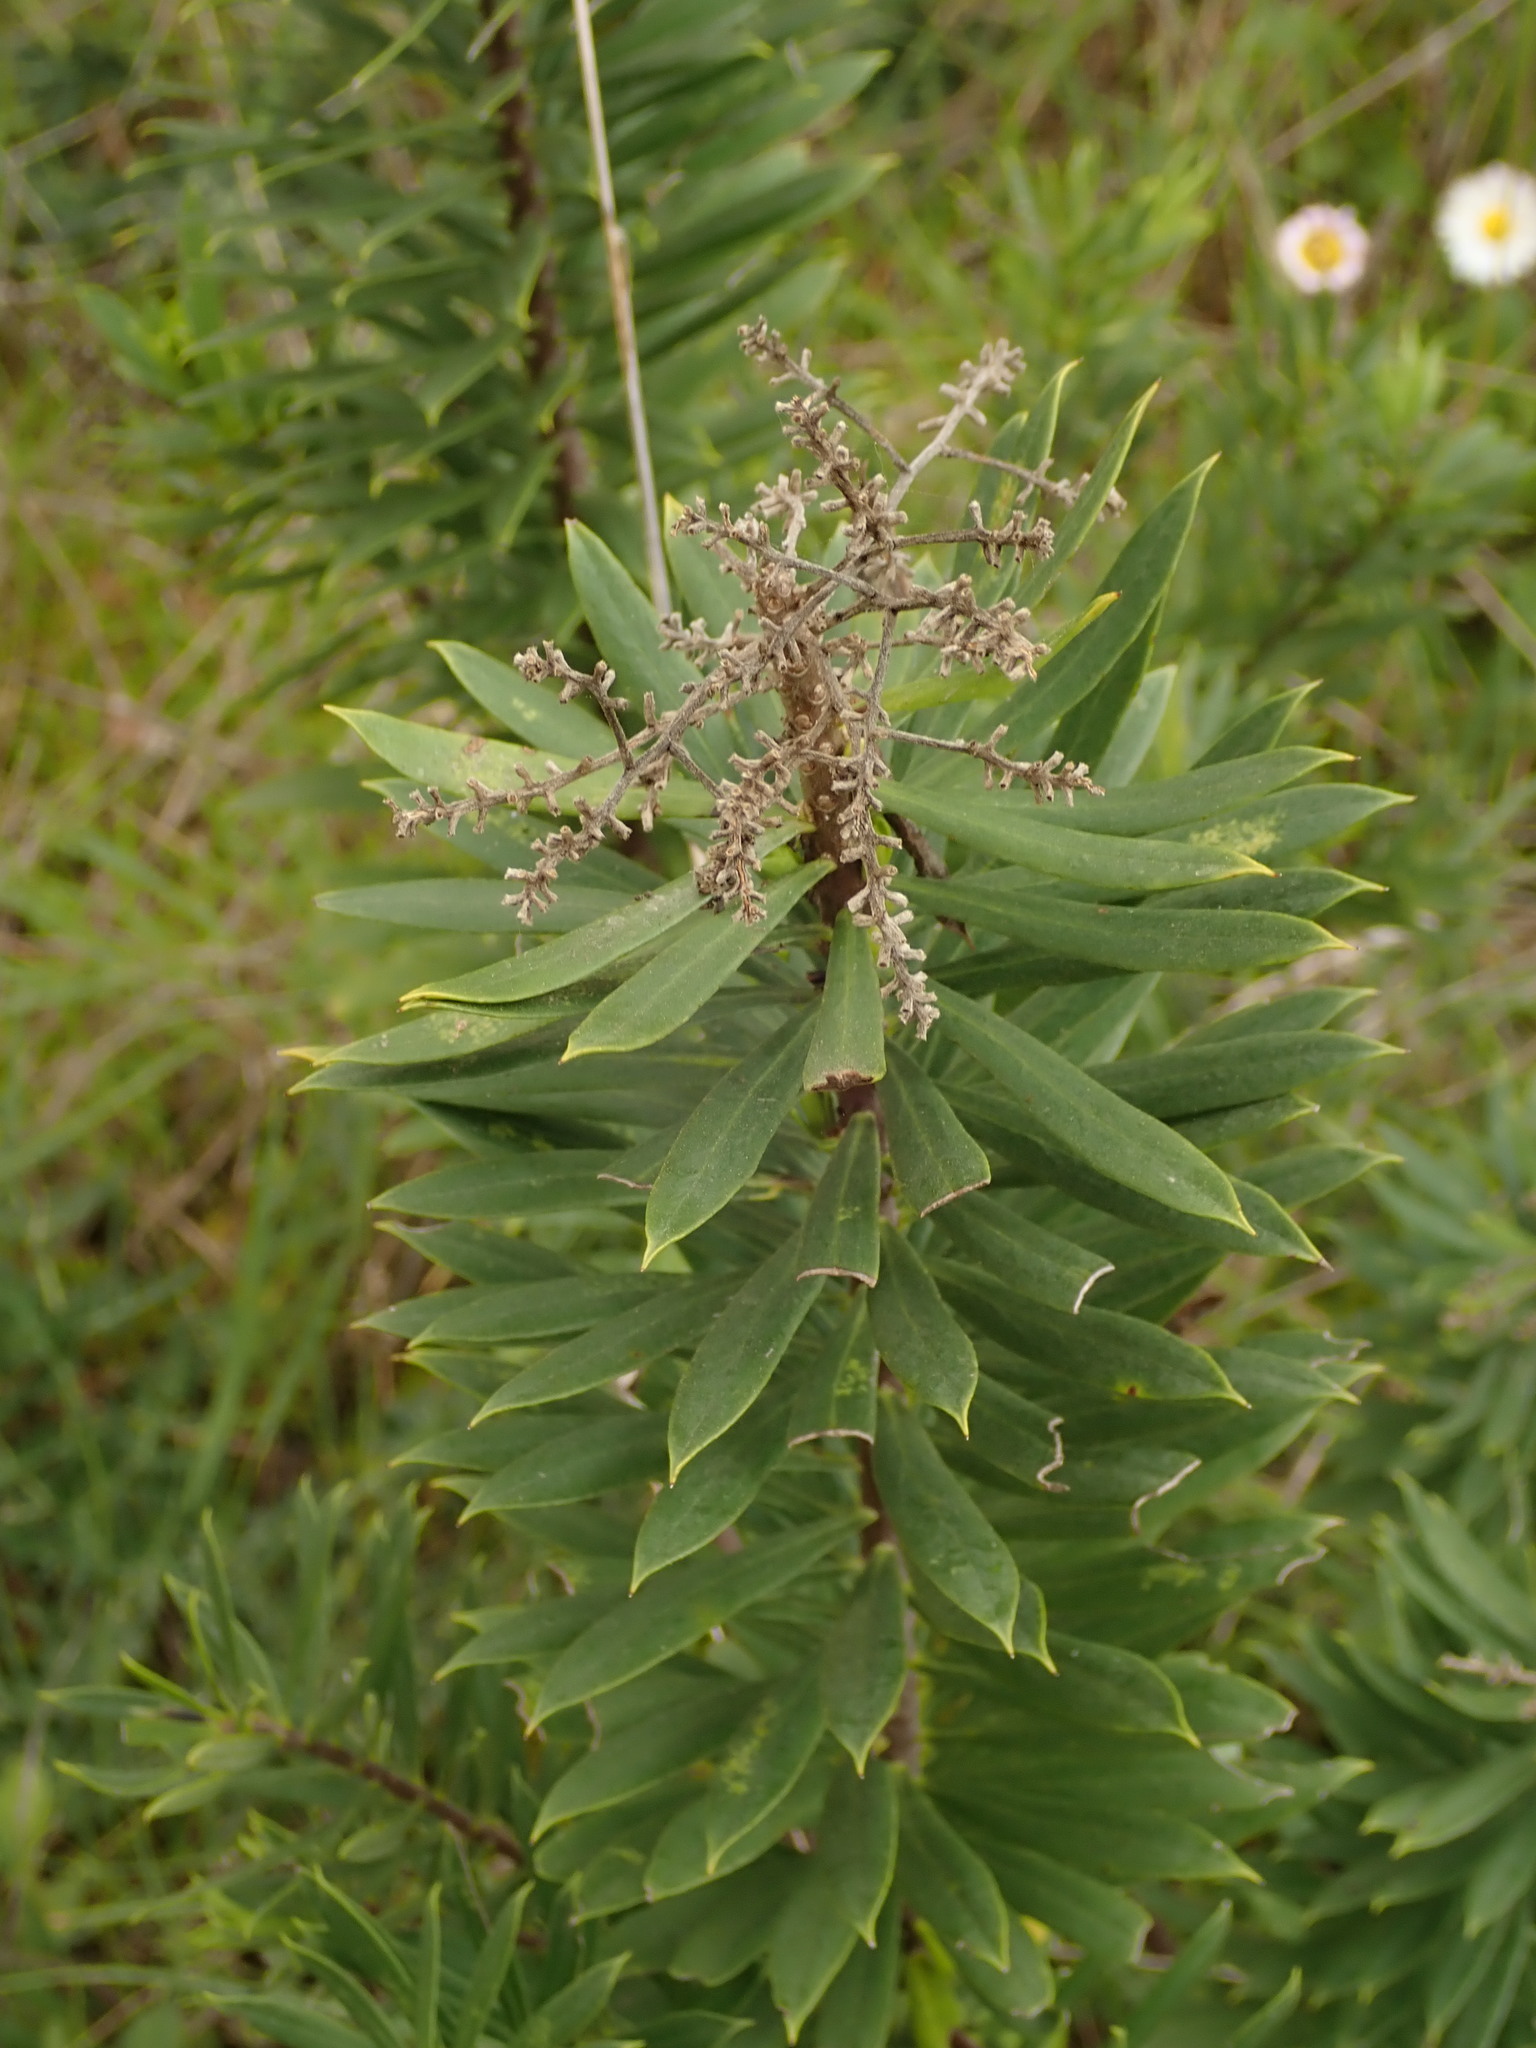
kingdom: Plantae
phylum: Tracheophyta
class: Magnoliopsida
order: Malvales
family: Thymelaeaceae
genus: Daphne
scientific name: Daphne gnidium
